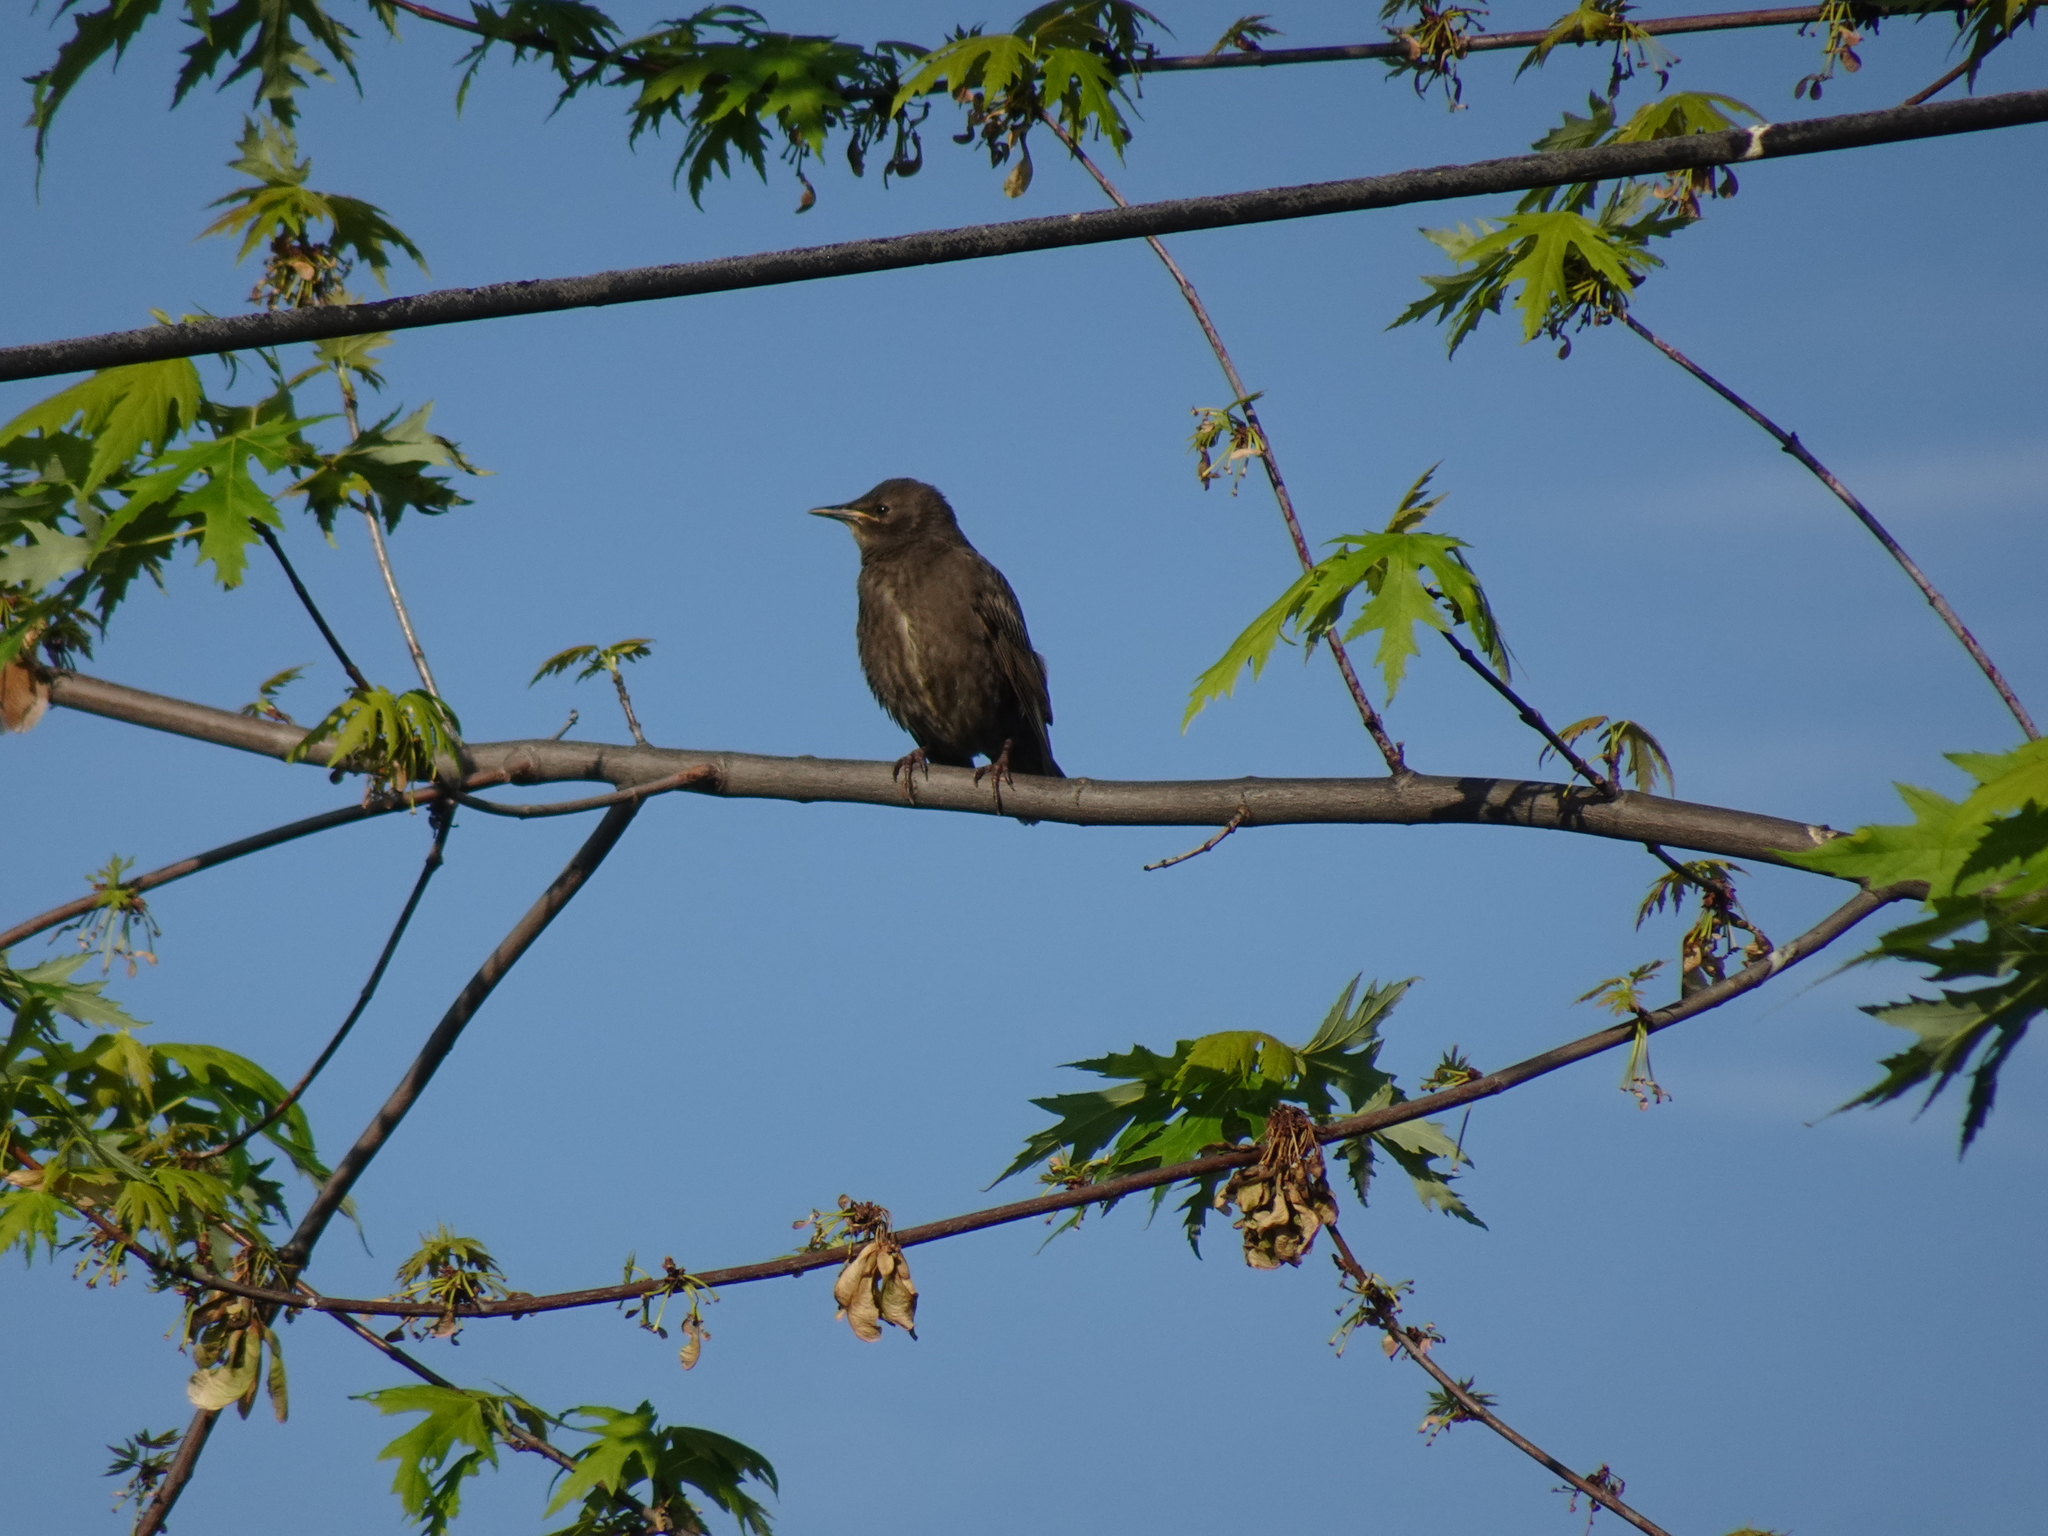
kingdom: Animalia
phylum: Chordata
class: Aves
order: Passeriformes
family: Sturnidae
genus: Sturnus
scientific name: Sturnus vulgaris
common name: Common starling
